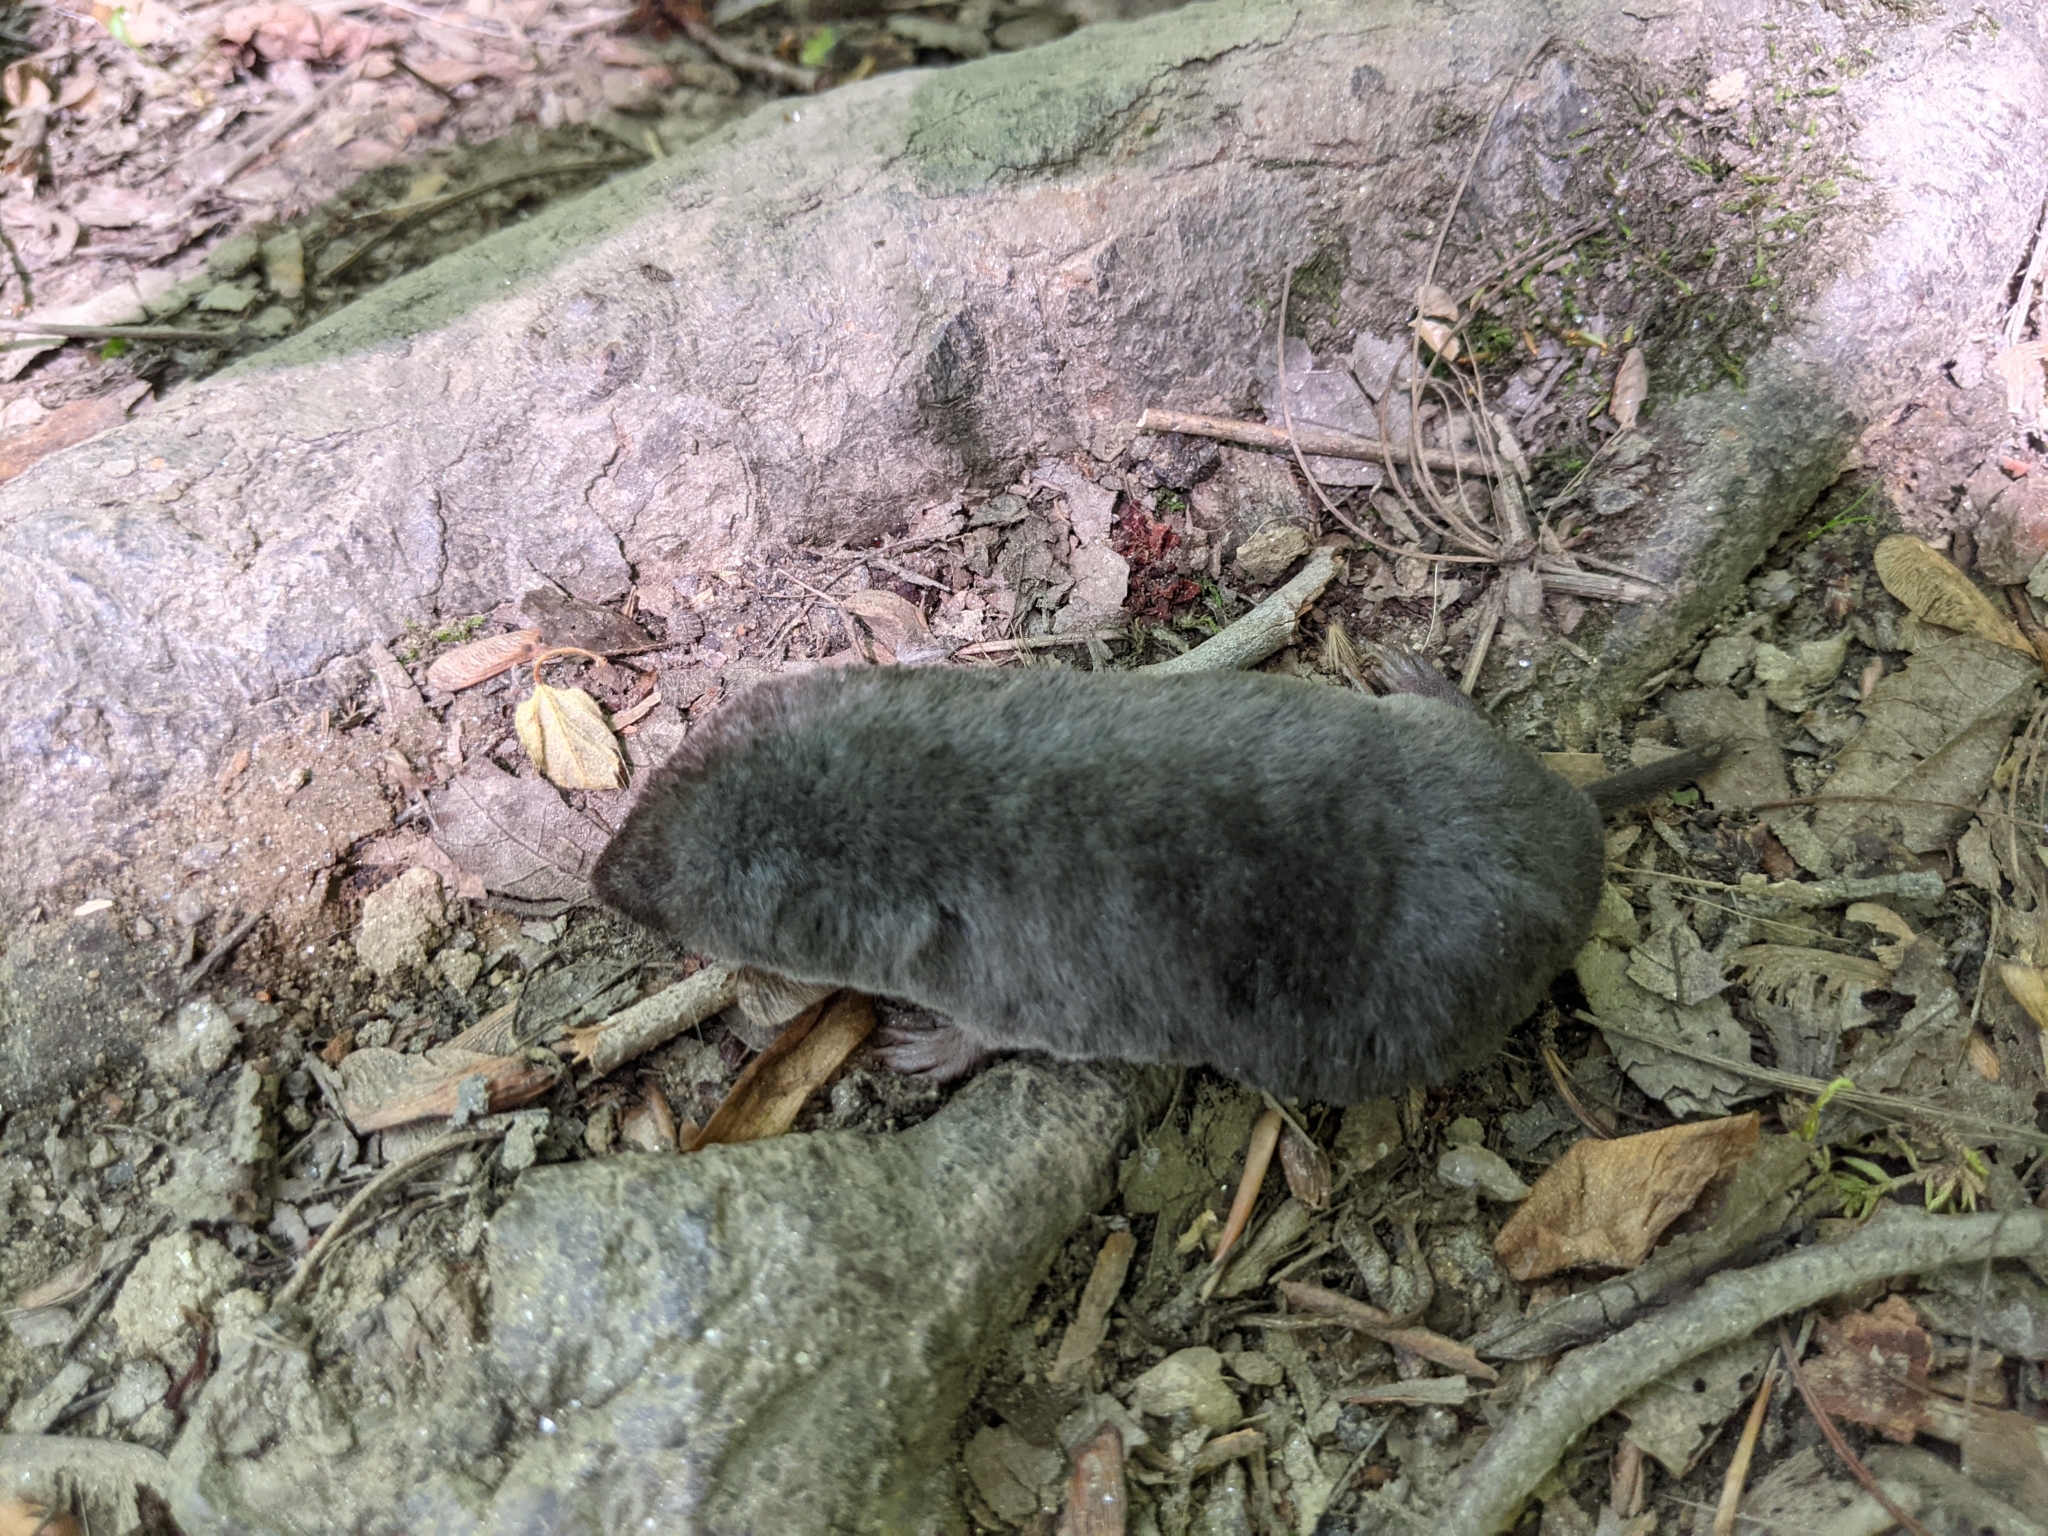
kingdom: Animalia
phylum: Chordata
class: Mammalia
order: Soricomorpha
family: Soricidae
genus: Blarina
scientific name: Blarina brevicauda
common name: Northern short-tailed shrew
